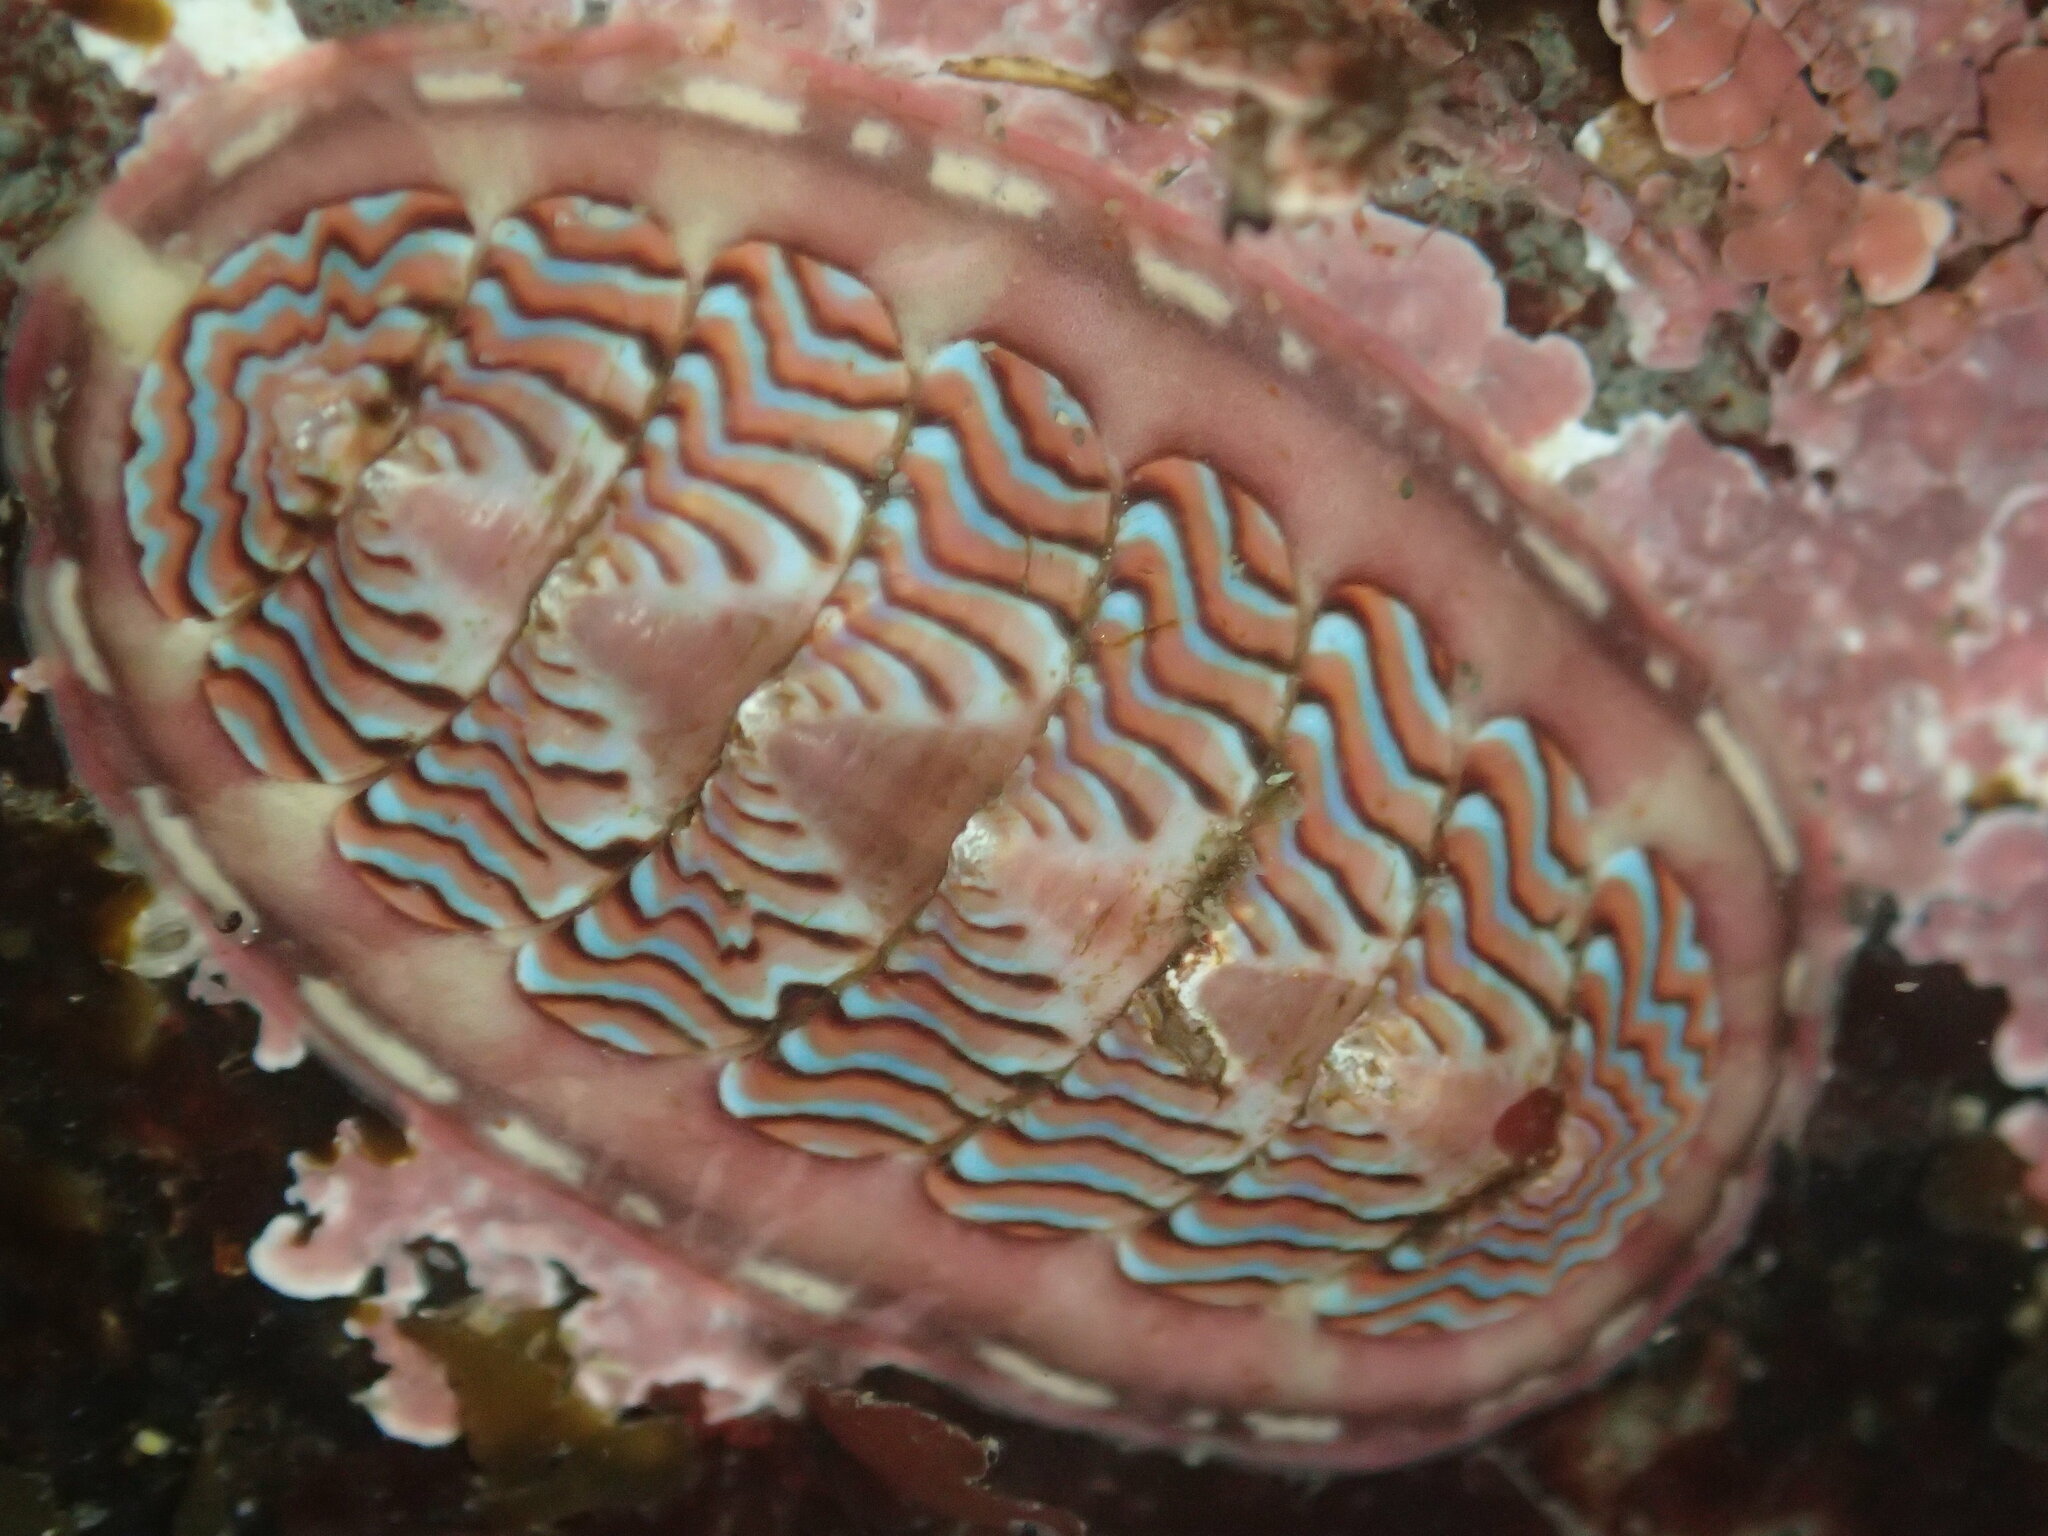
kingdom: Animalia
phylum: Mollusca
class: Polyplacophora
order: Chitonida
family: Tonicellidae
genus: Tonicella
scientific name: Tonicella lokii
